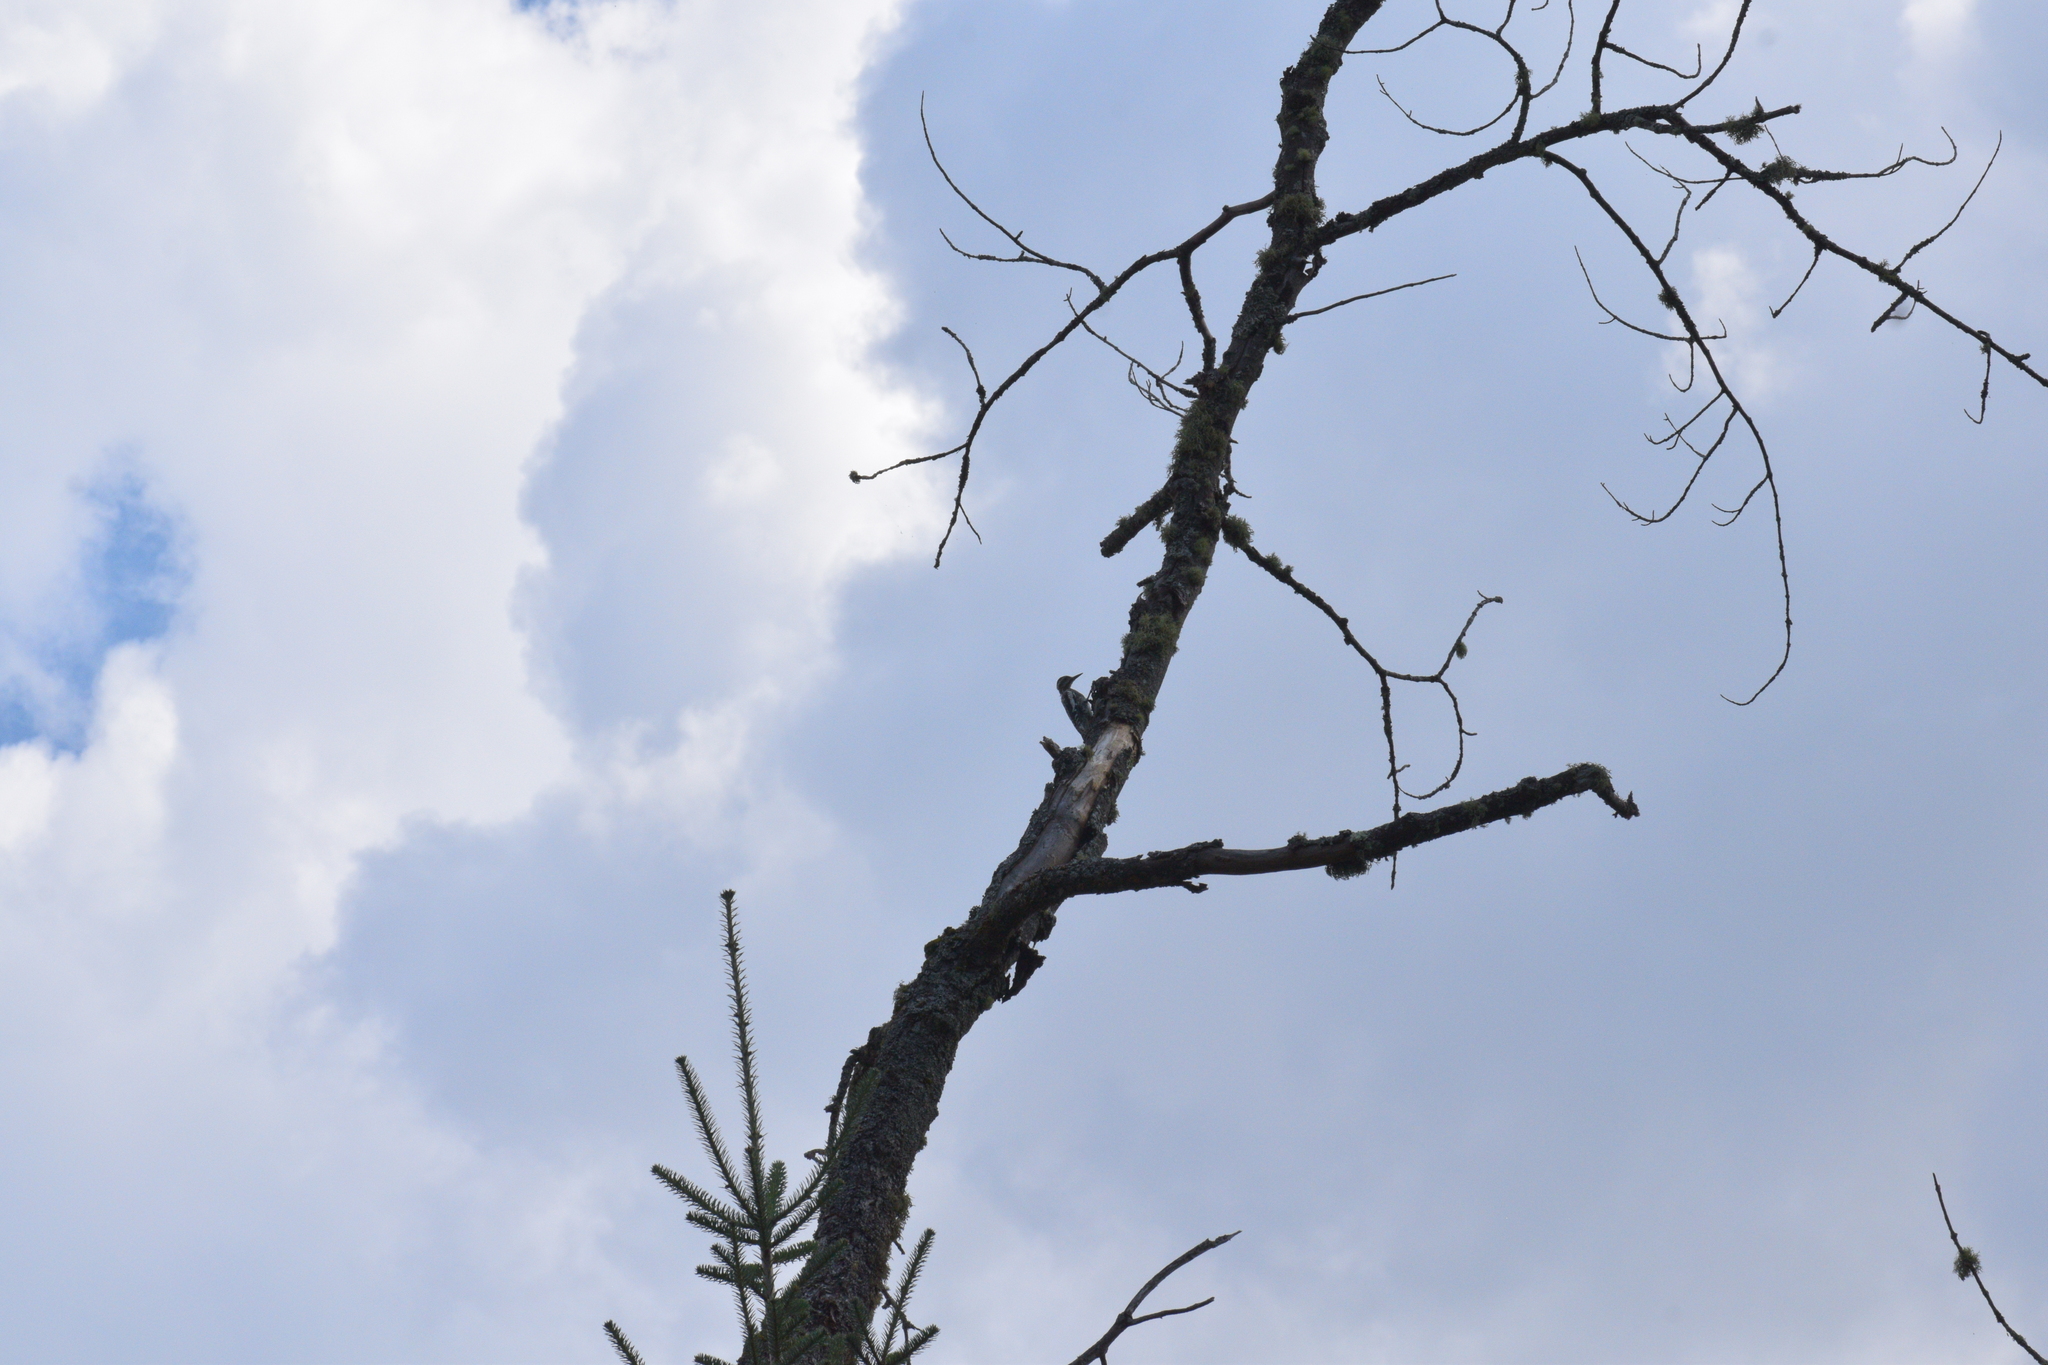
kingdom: Animalia
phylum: Chordata
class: Aves
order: Piciformes
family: Picidae
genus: Sphyrapicus
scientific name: Sphyrapicus varius
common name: Yellow-bellied sapsucker
